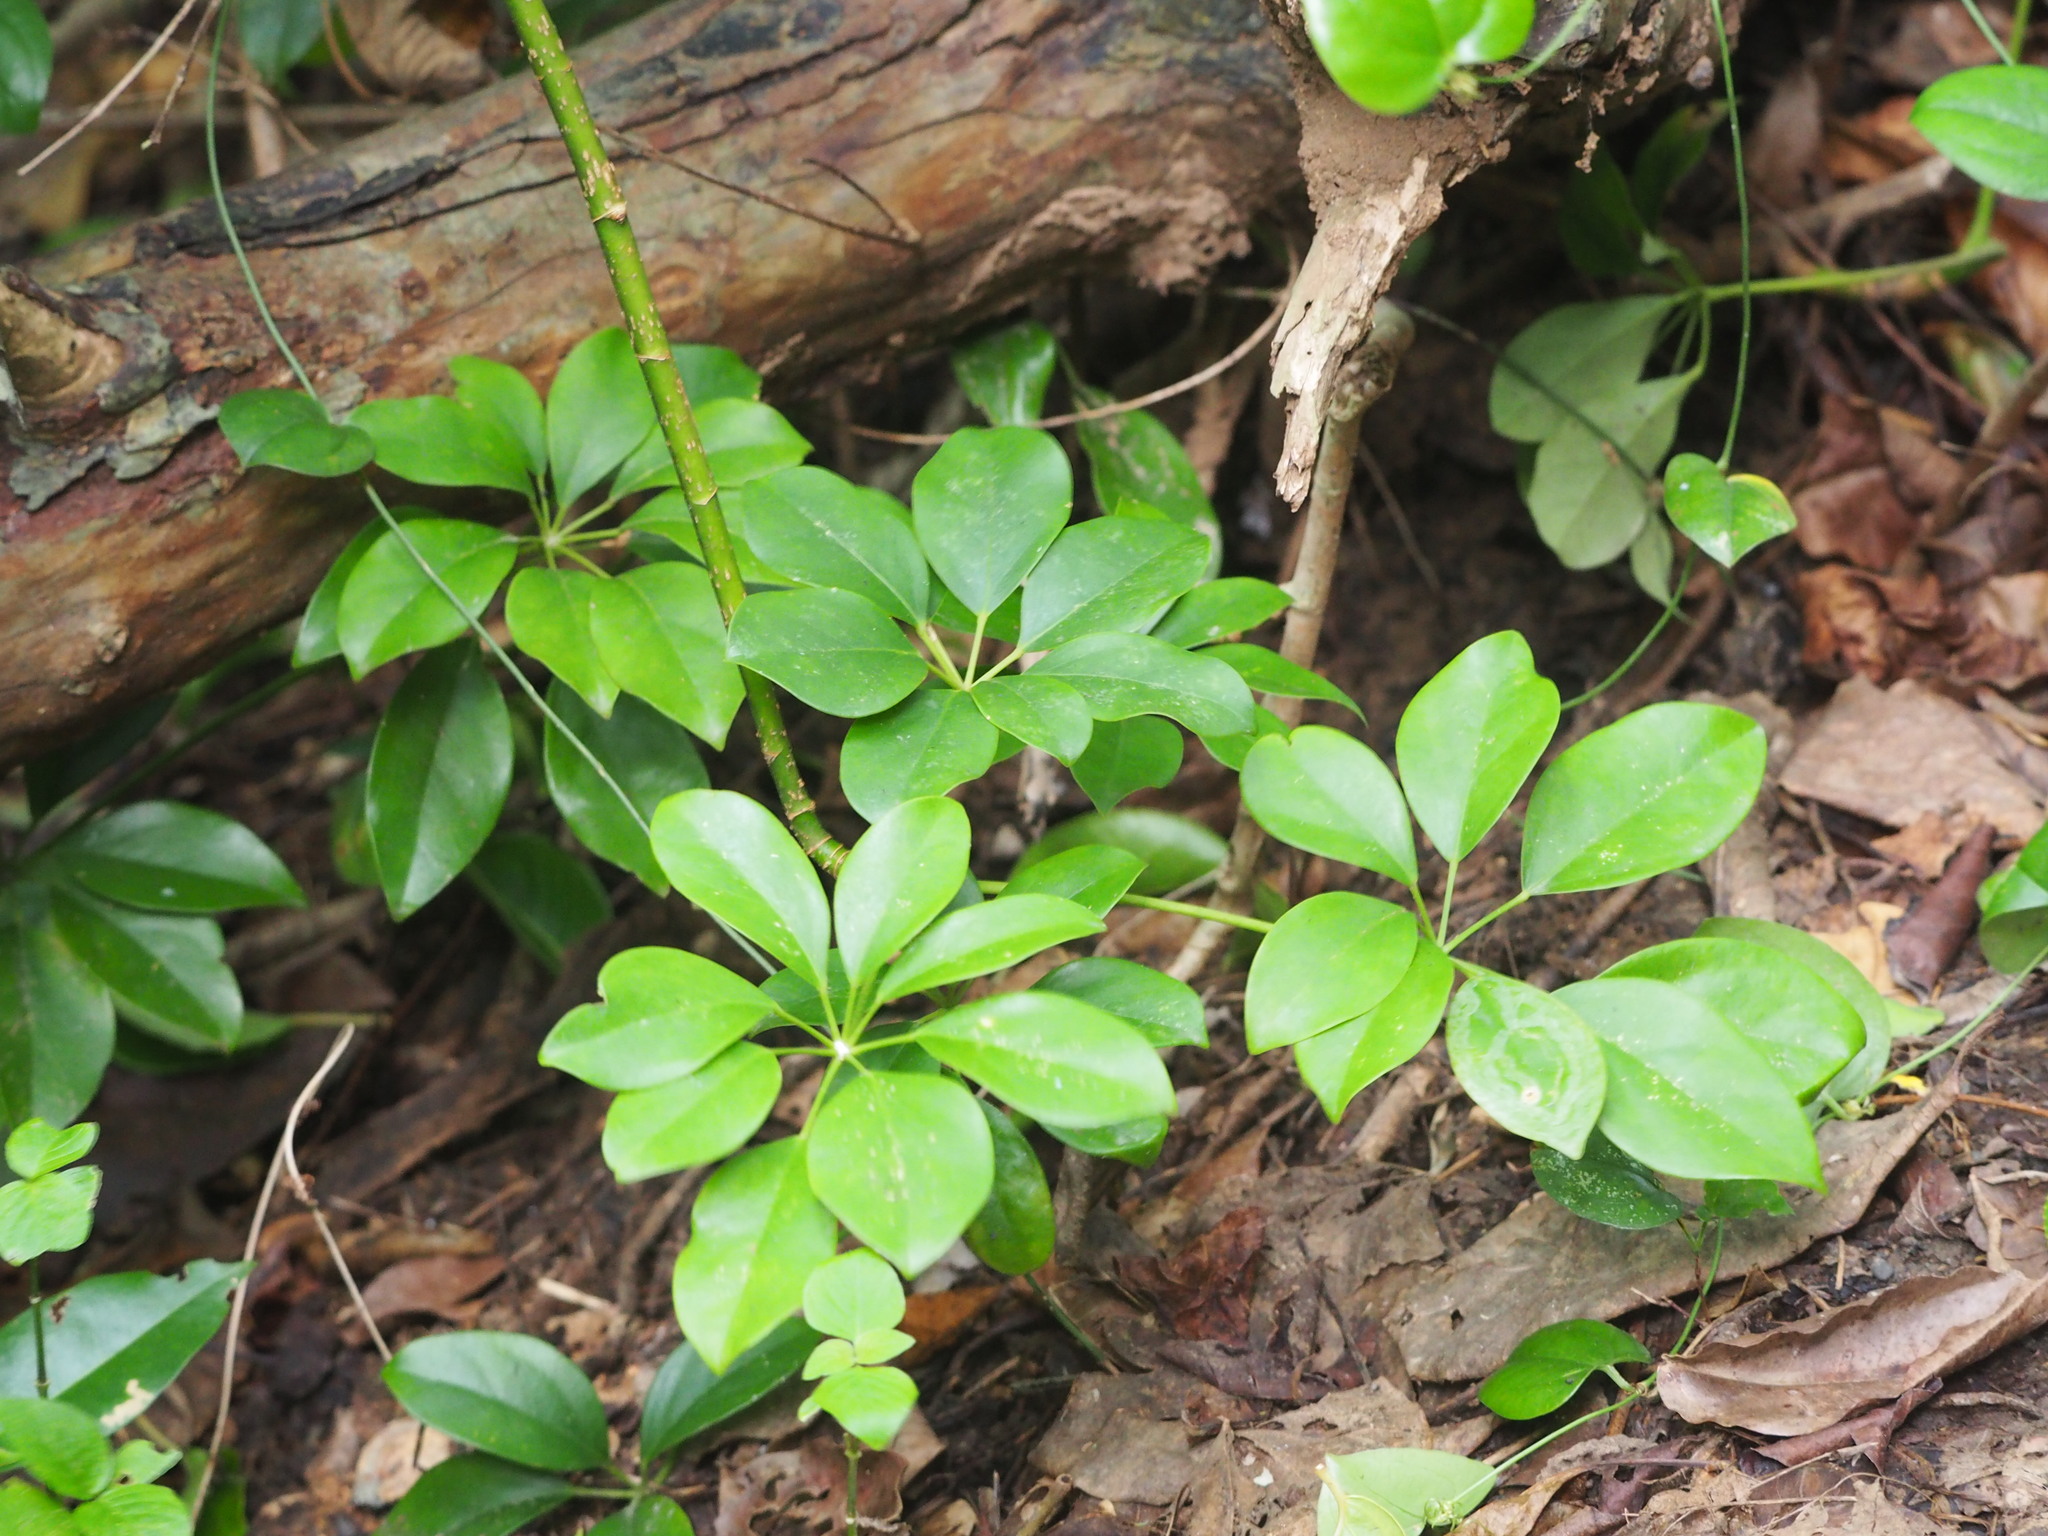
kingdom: Plantae
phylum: Tracheophyta
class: Magnoliopsida
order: Apiales
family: Araliaceae
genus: Heptapleurum
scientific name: Heptapleurum arboricola
